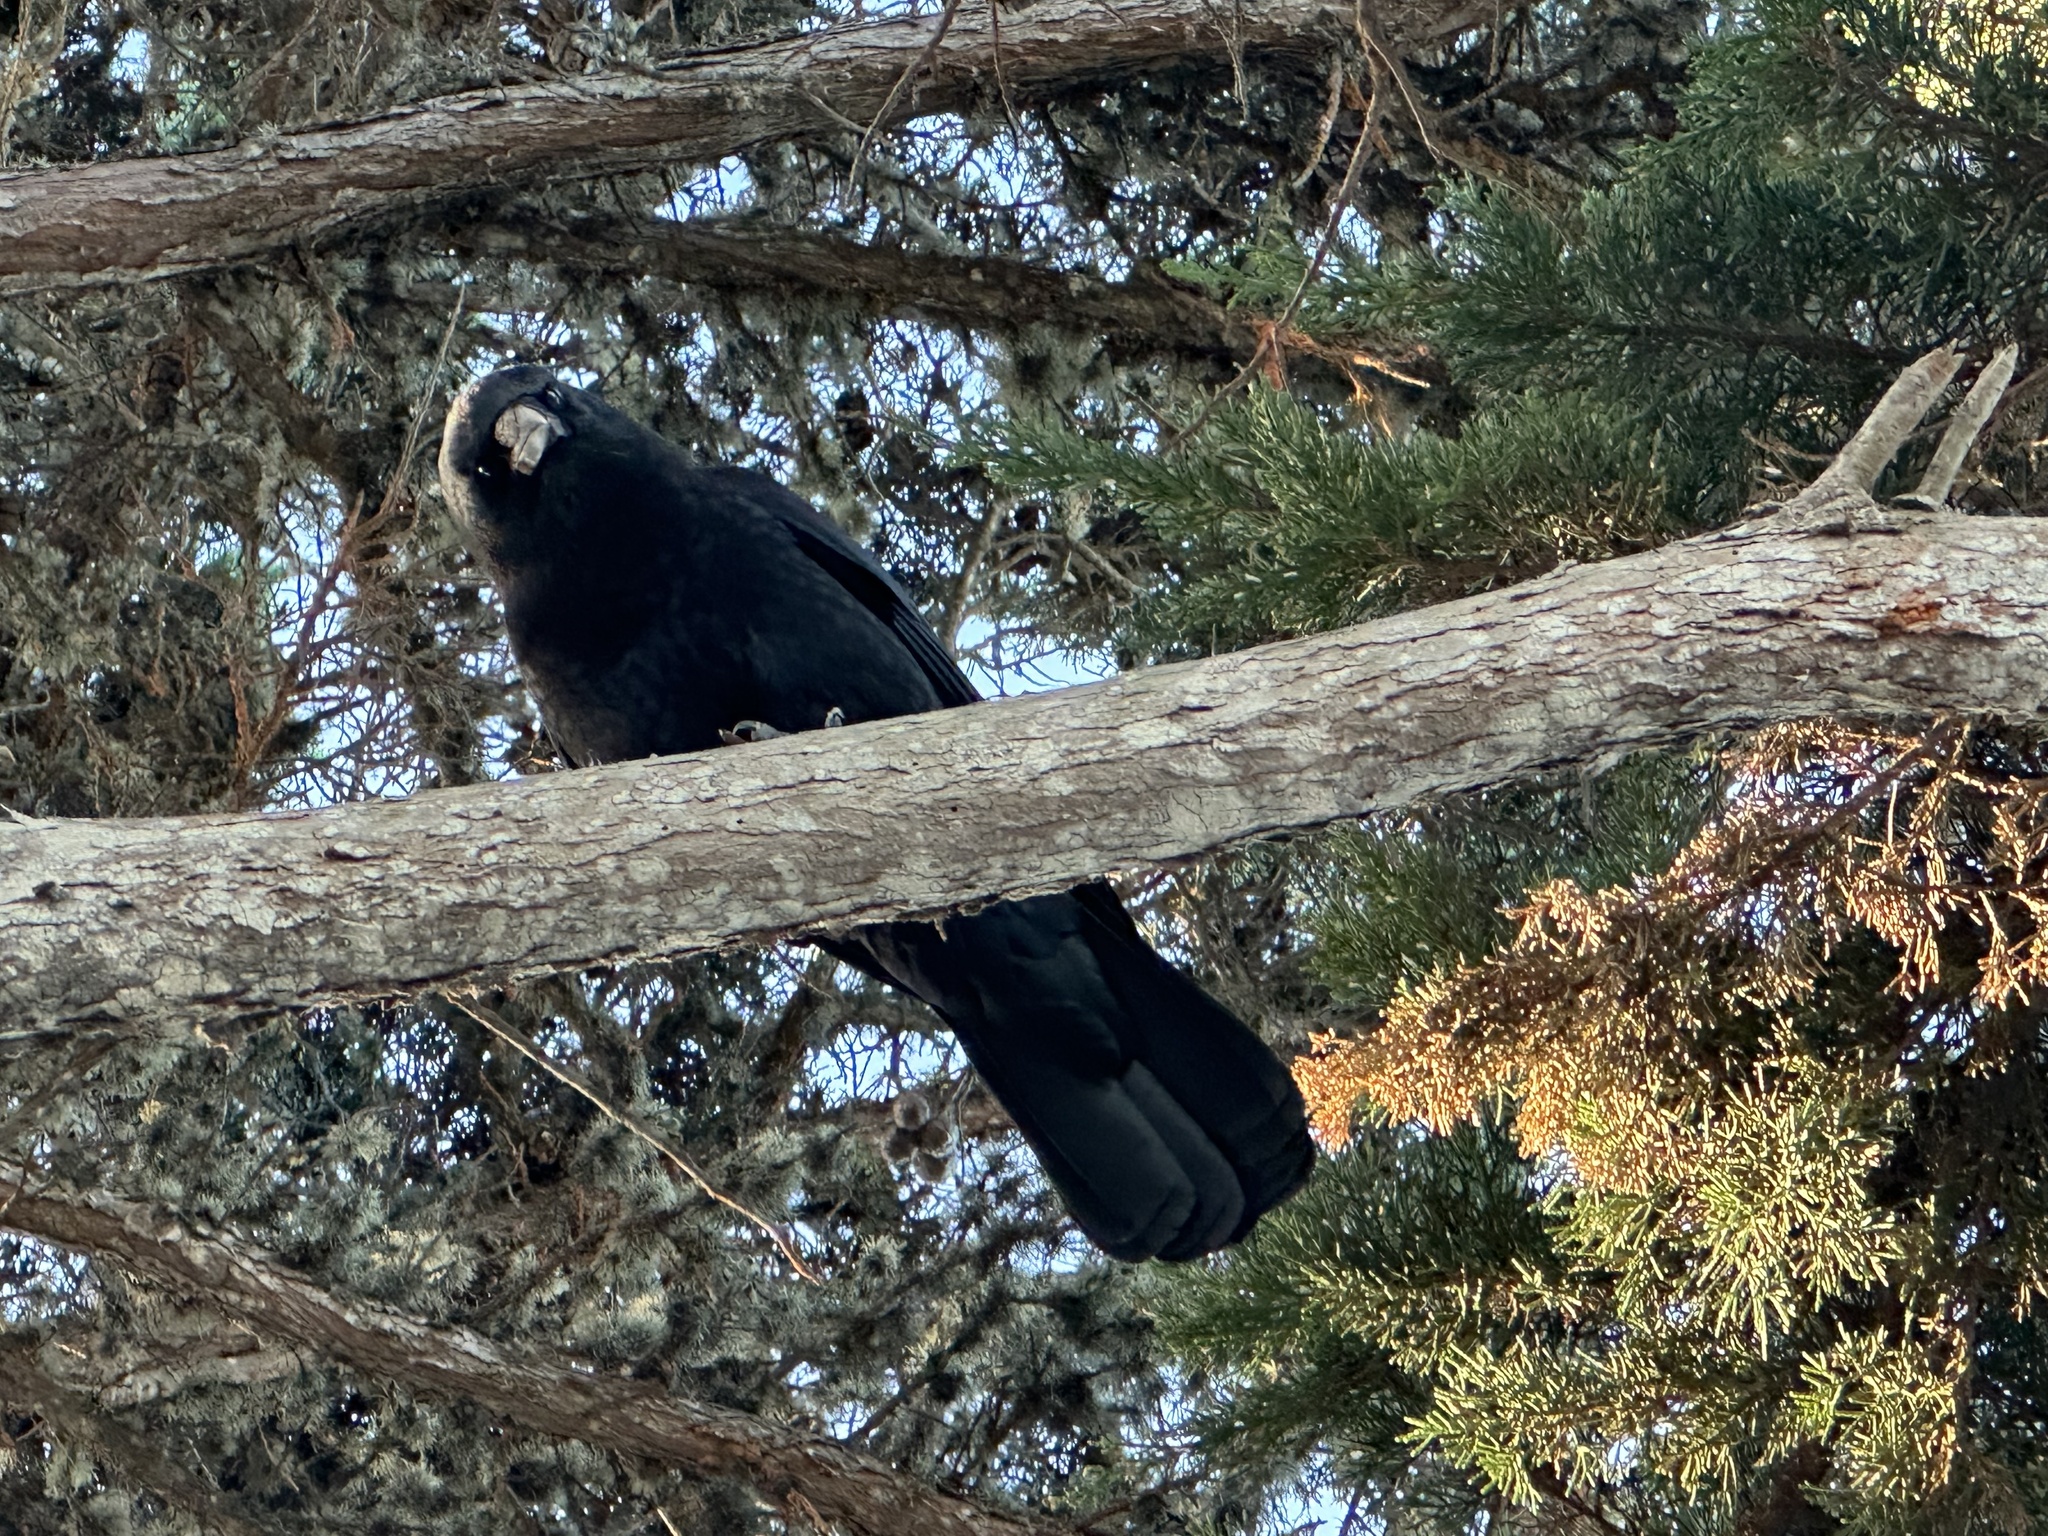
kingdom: Animalia
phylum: Chordata
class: Aves
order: Passeriformes
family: Corvidae
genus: Corvus
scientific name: Corvus brachyrhynchos
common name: American crow
